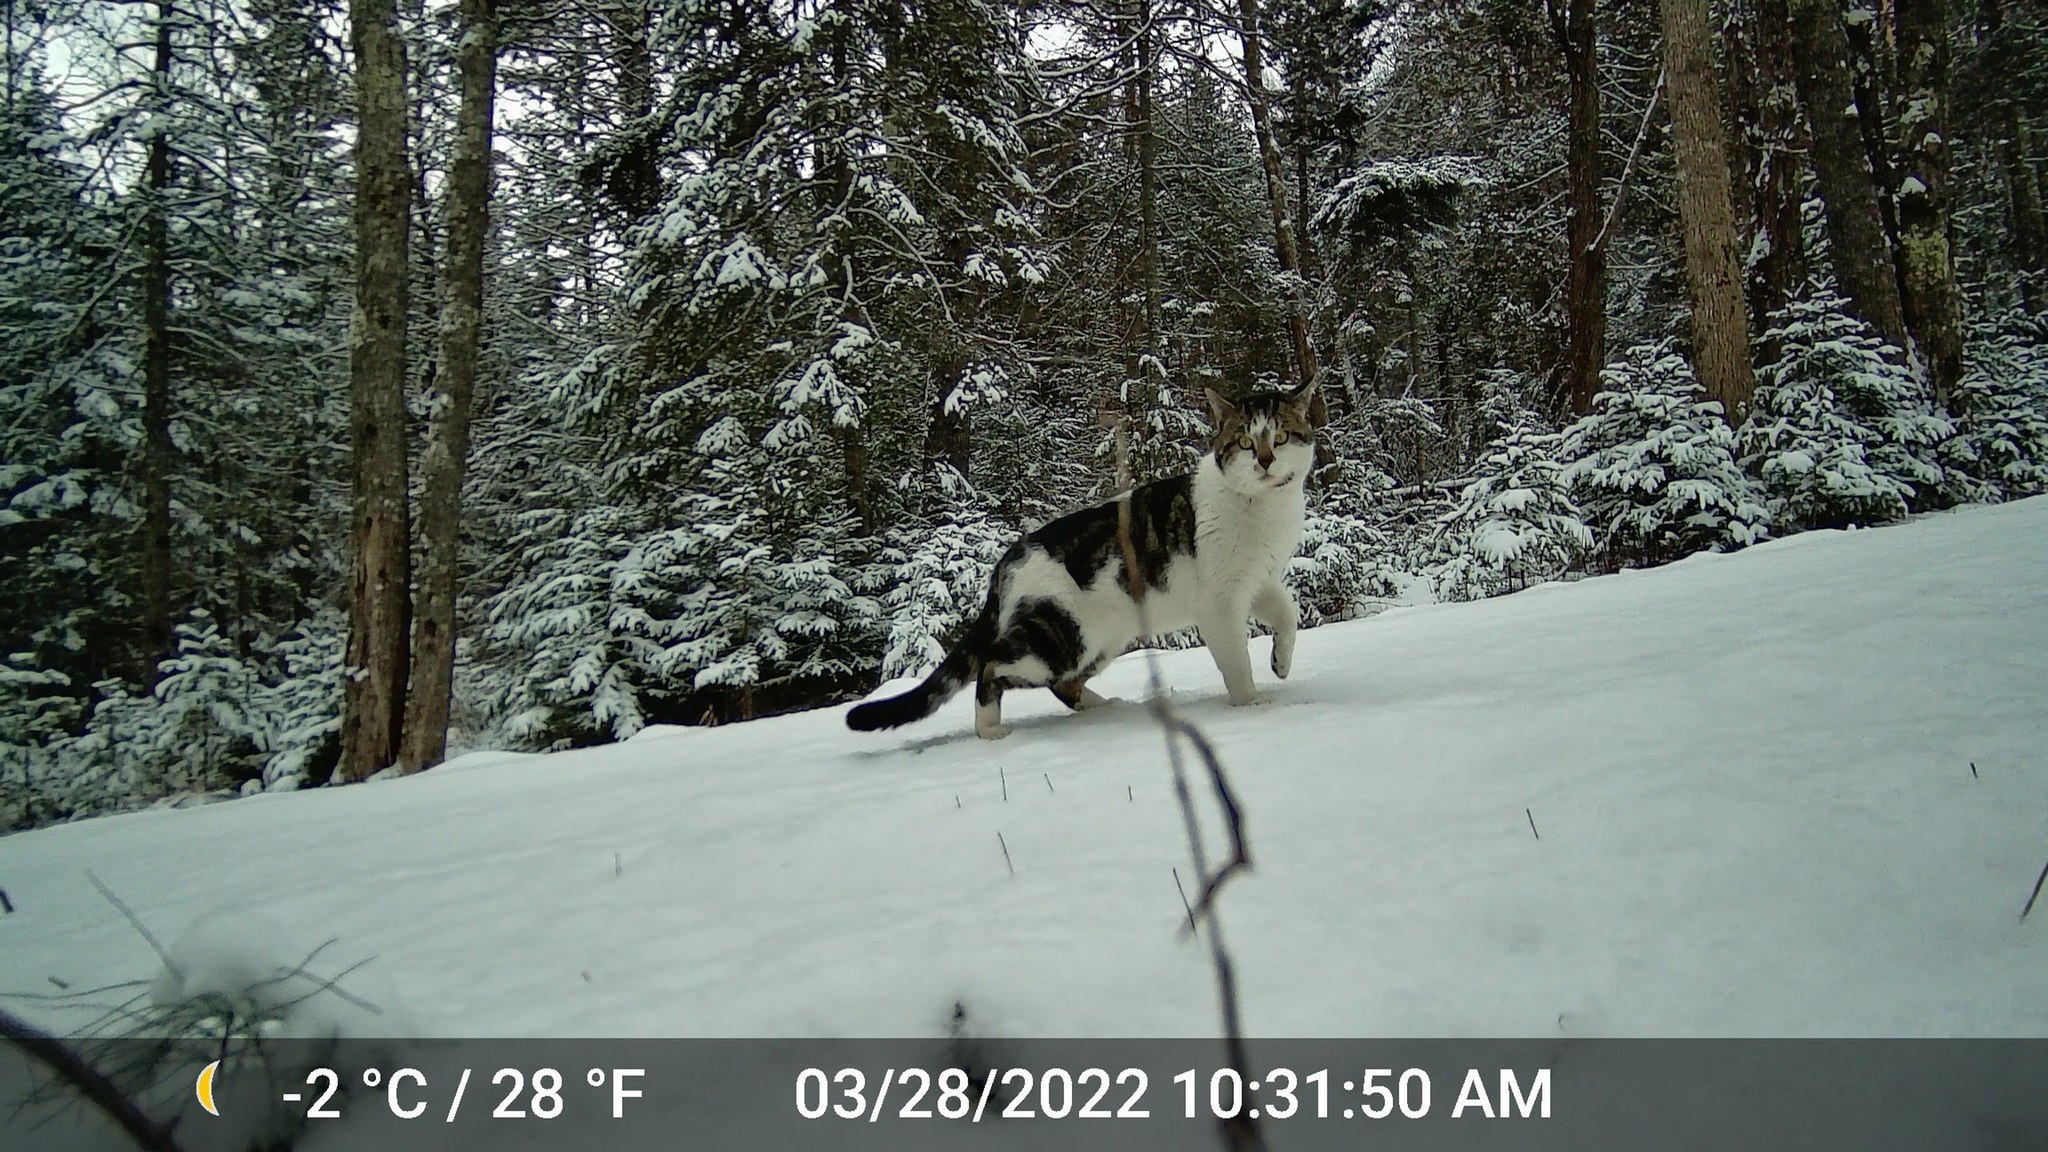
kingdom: Animalia
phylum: Chordata
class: Mammalia
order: Carnivora
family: Felidae
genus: Felis
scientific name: Felis catus
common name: Domestic cat
